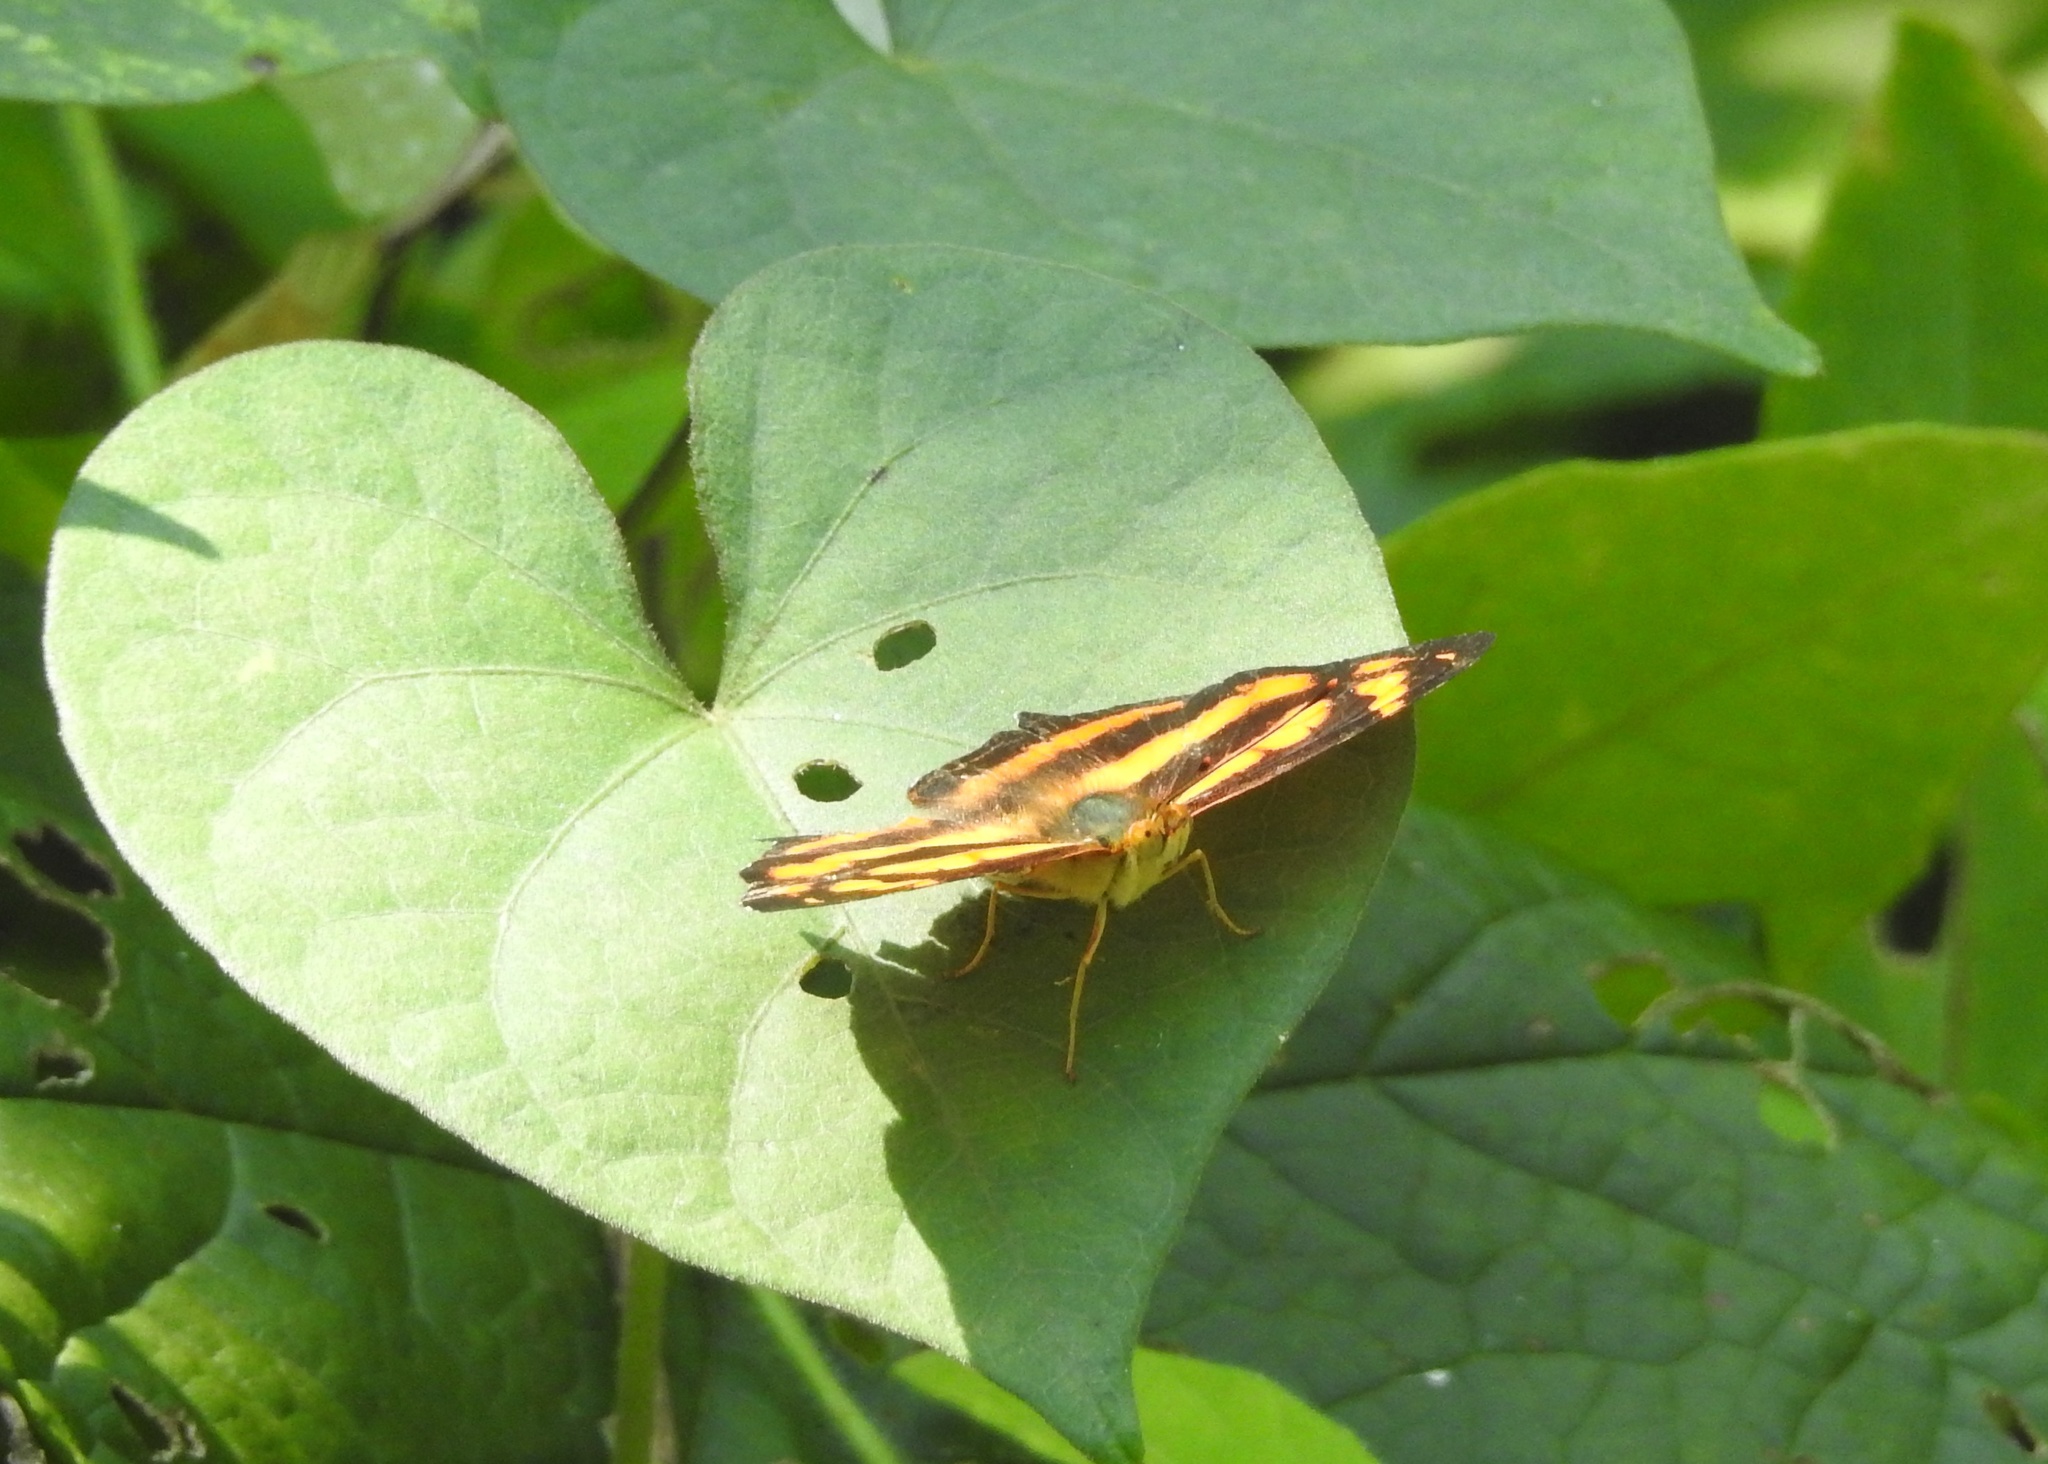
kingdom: Animalia
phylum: Arthropoda
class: Insecta
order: Lepidoptera
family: Nymphalidae
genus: Symbrenthia
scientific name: Symbrenthia hypselis
